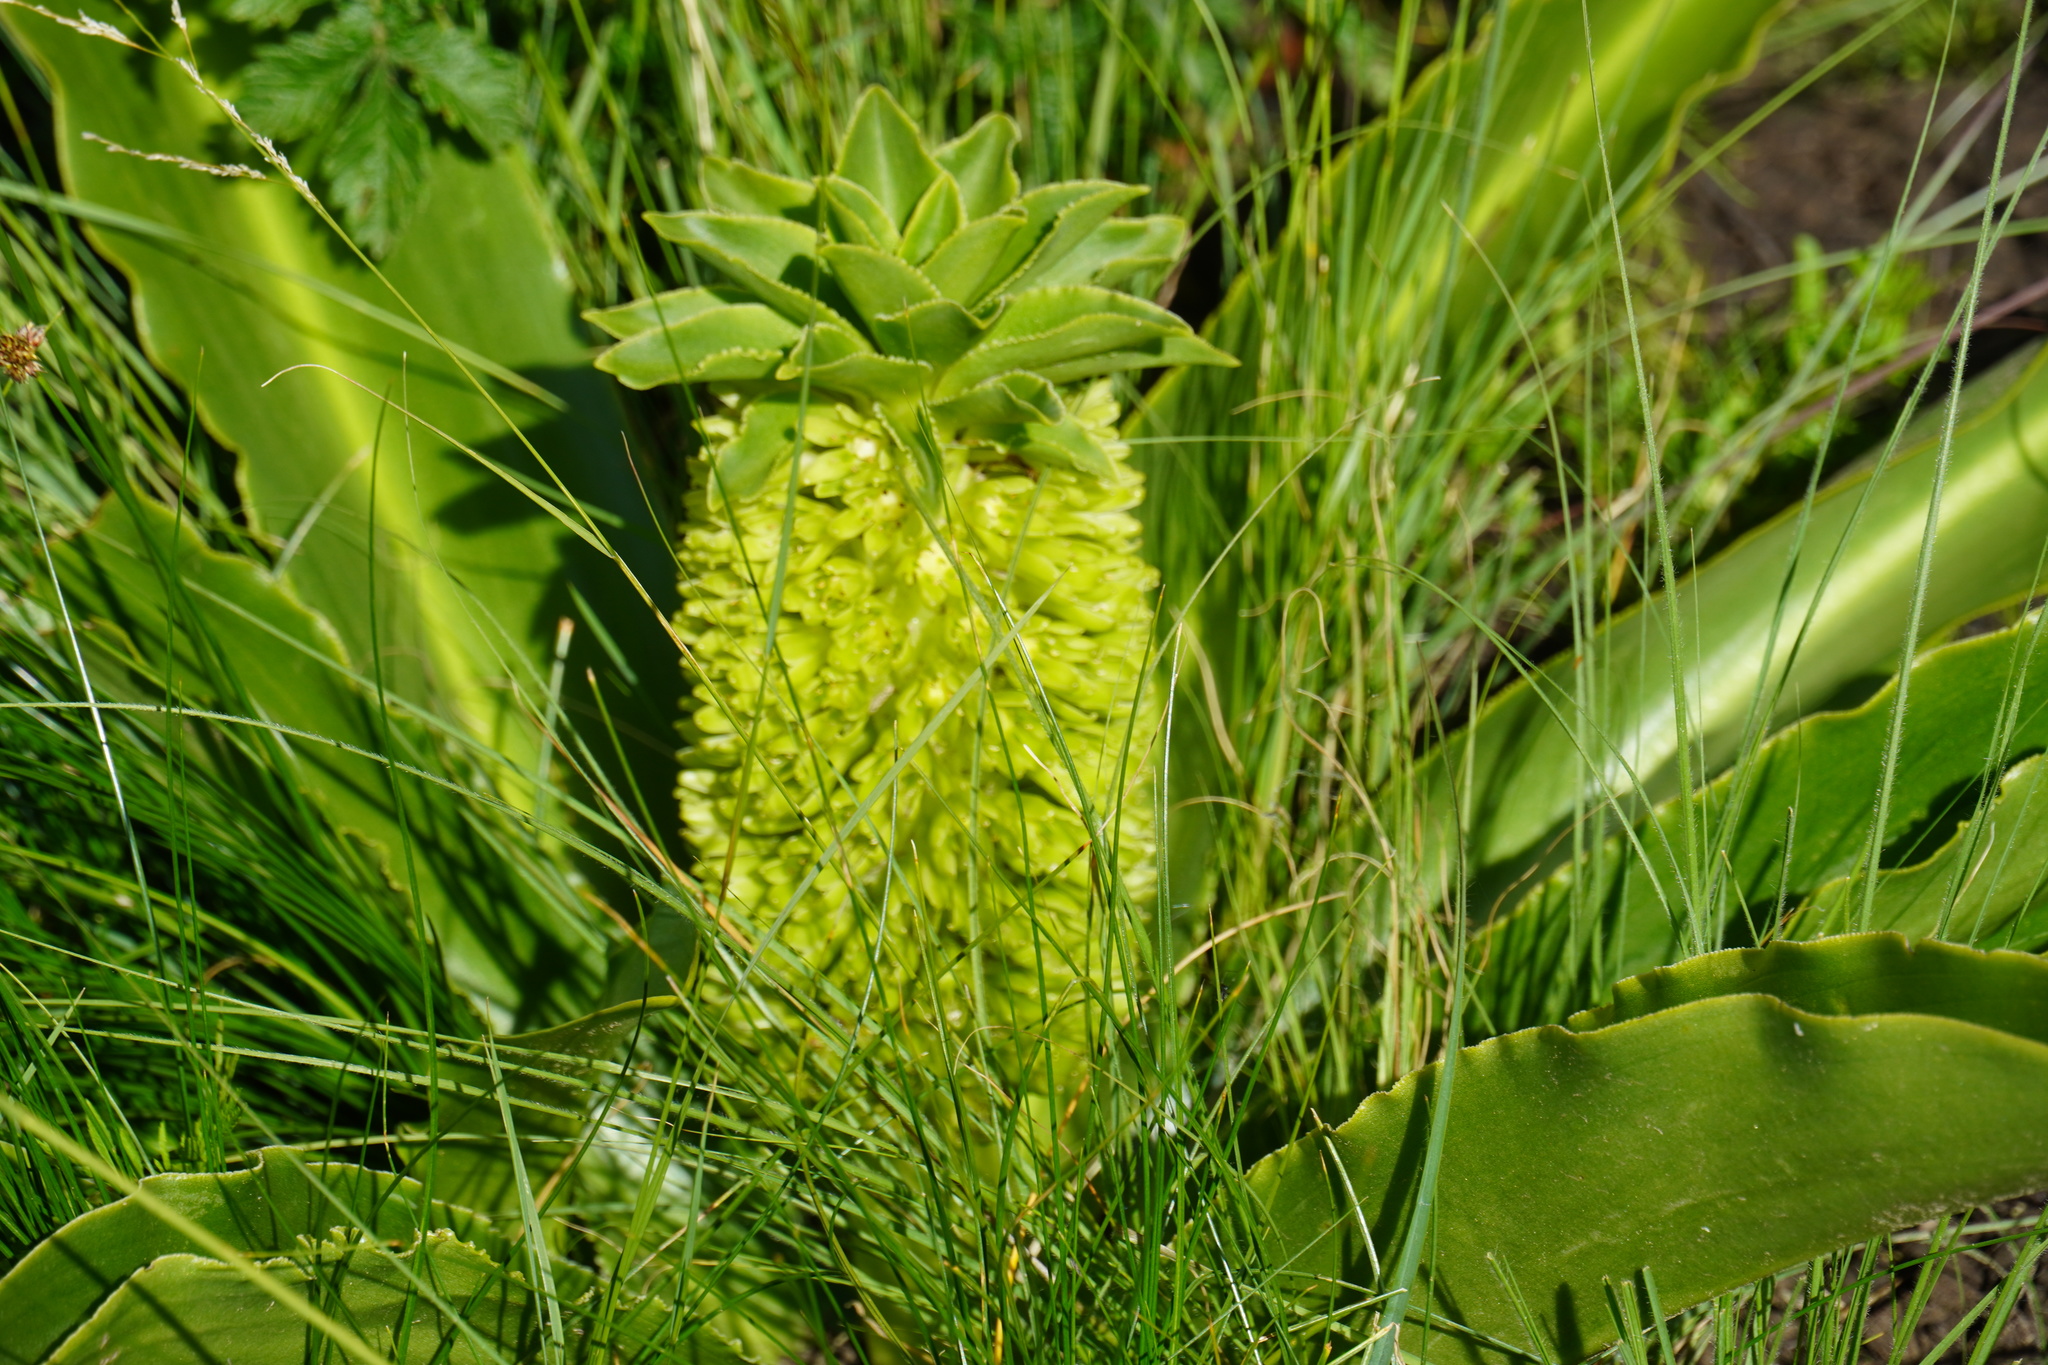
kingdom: Plantae
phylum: Tracheophyta
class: Liliopsida
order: Asparagales
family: Asparagaceae
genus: Eucomis
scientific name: Eucomis autumnalis
